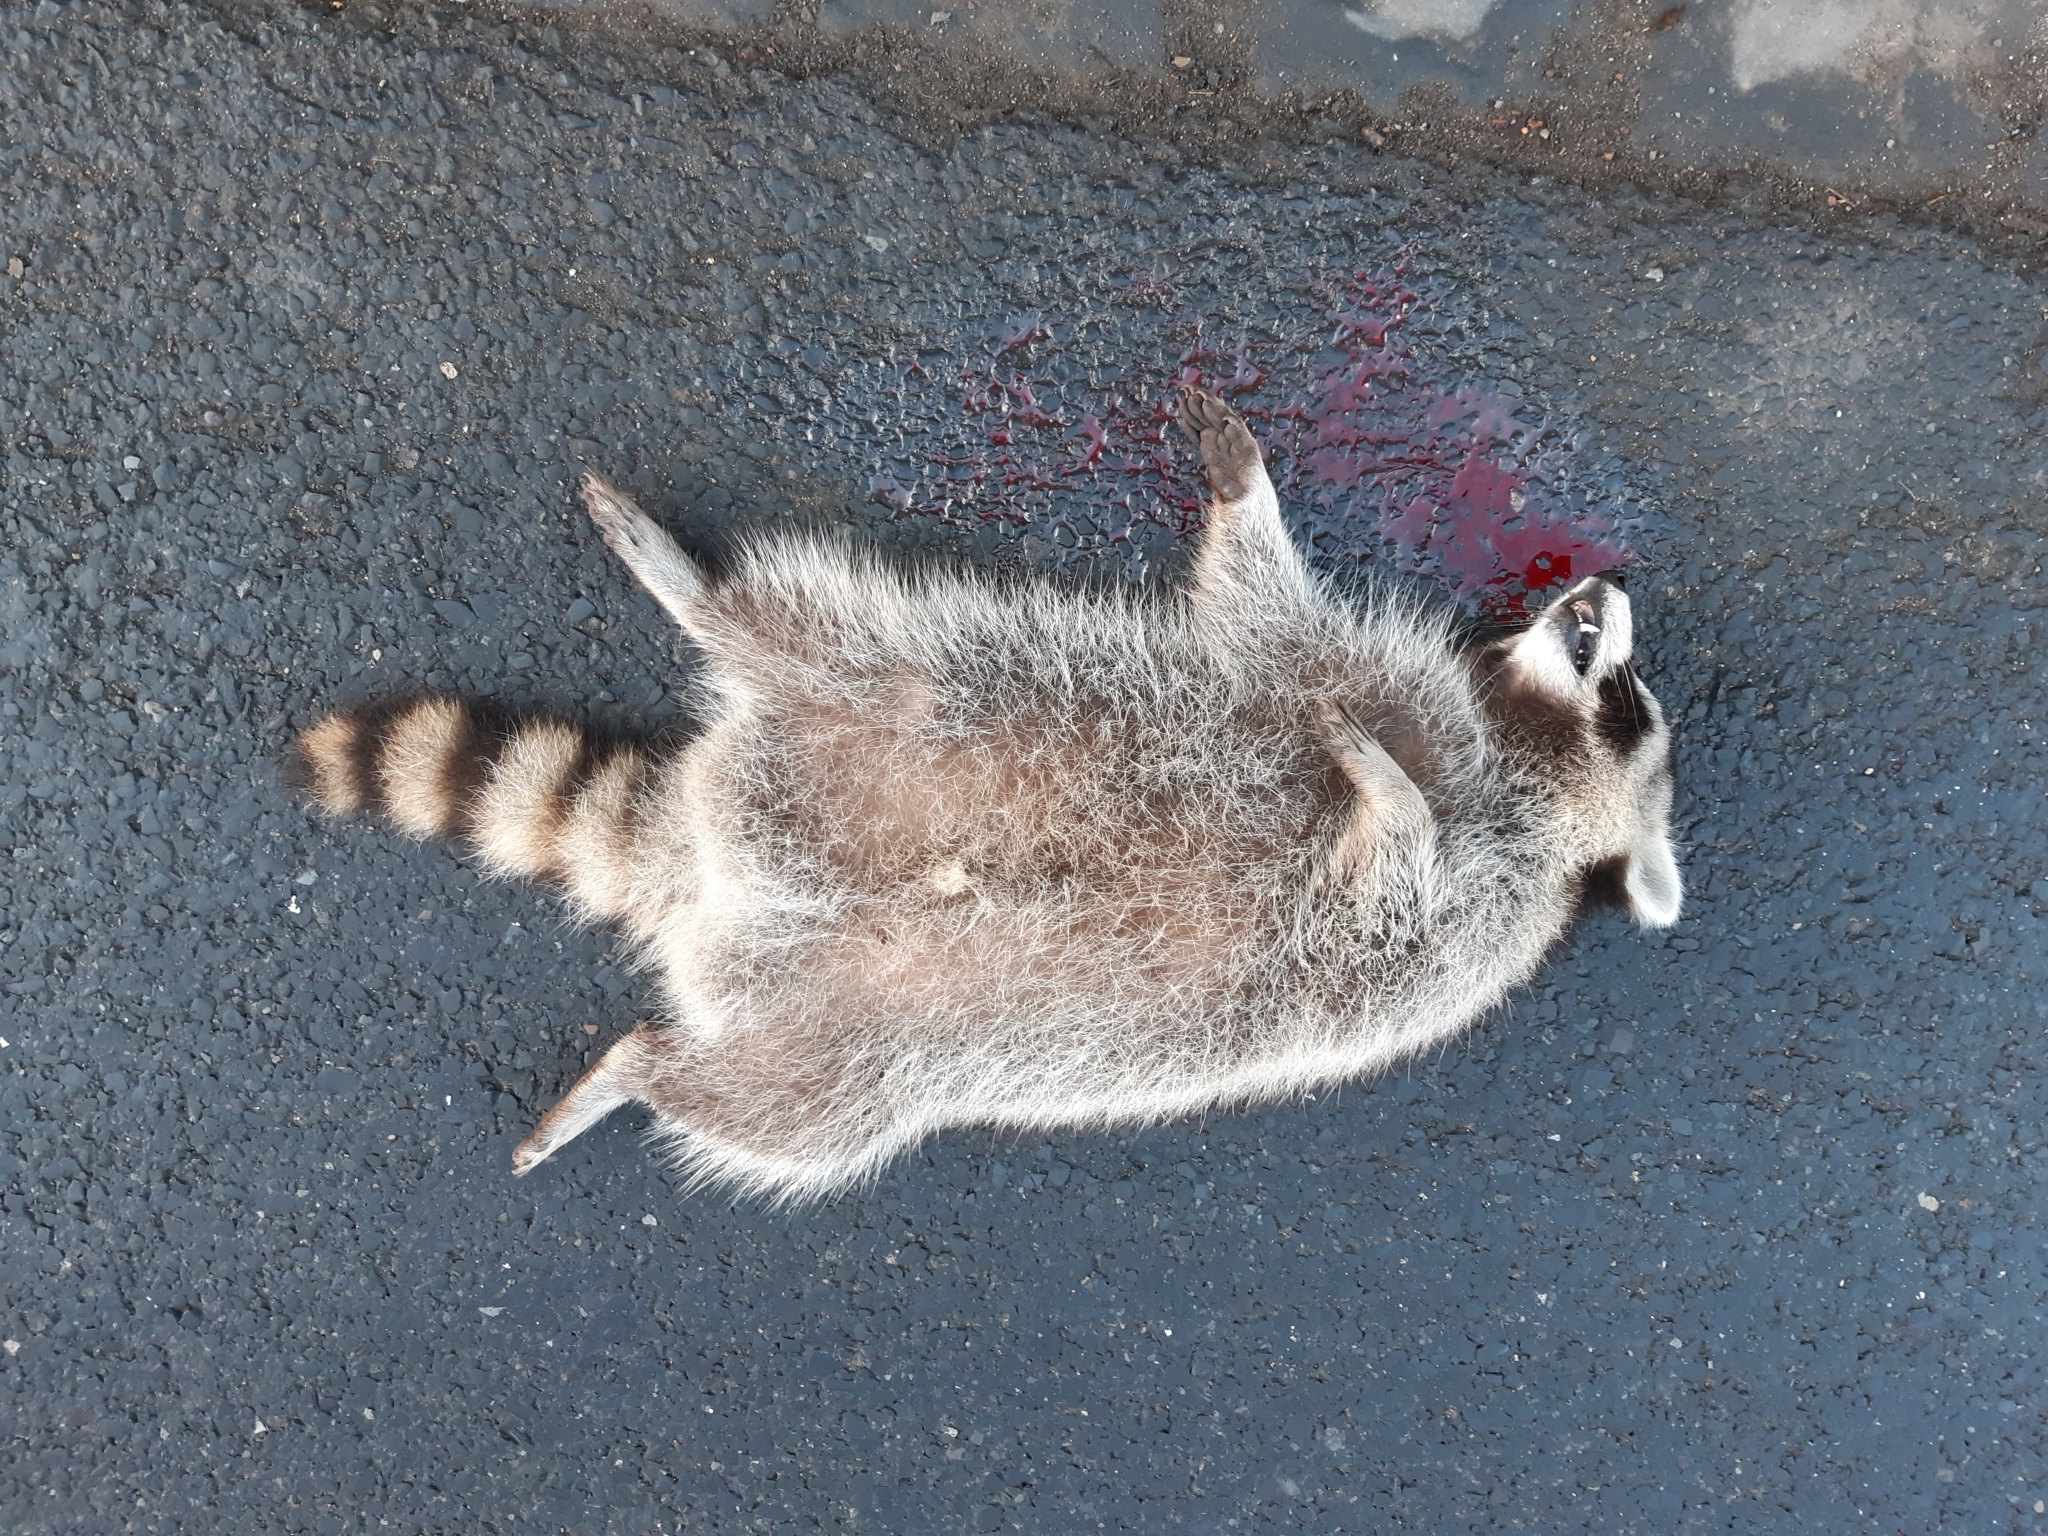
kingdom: Animalia
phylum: Chordata
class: Mammalia
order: Carnivora
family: Procyonidae
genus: Procyon
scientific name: Procyon lotor
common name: Raccoon
